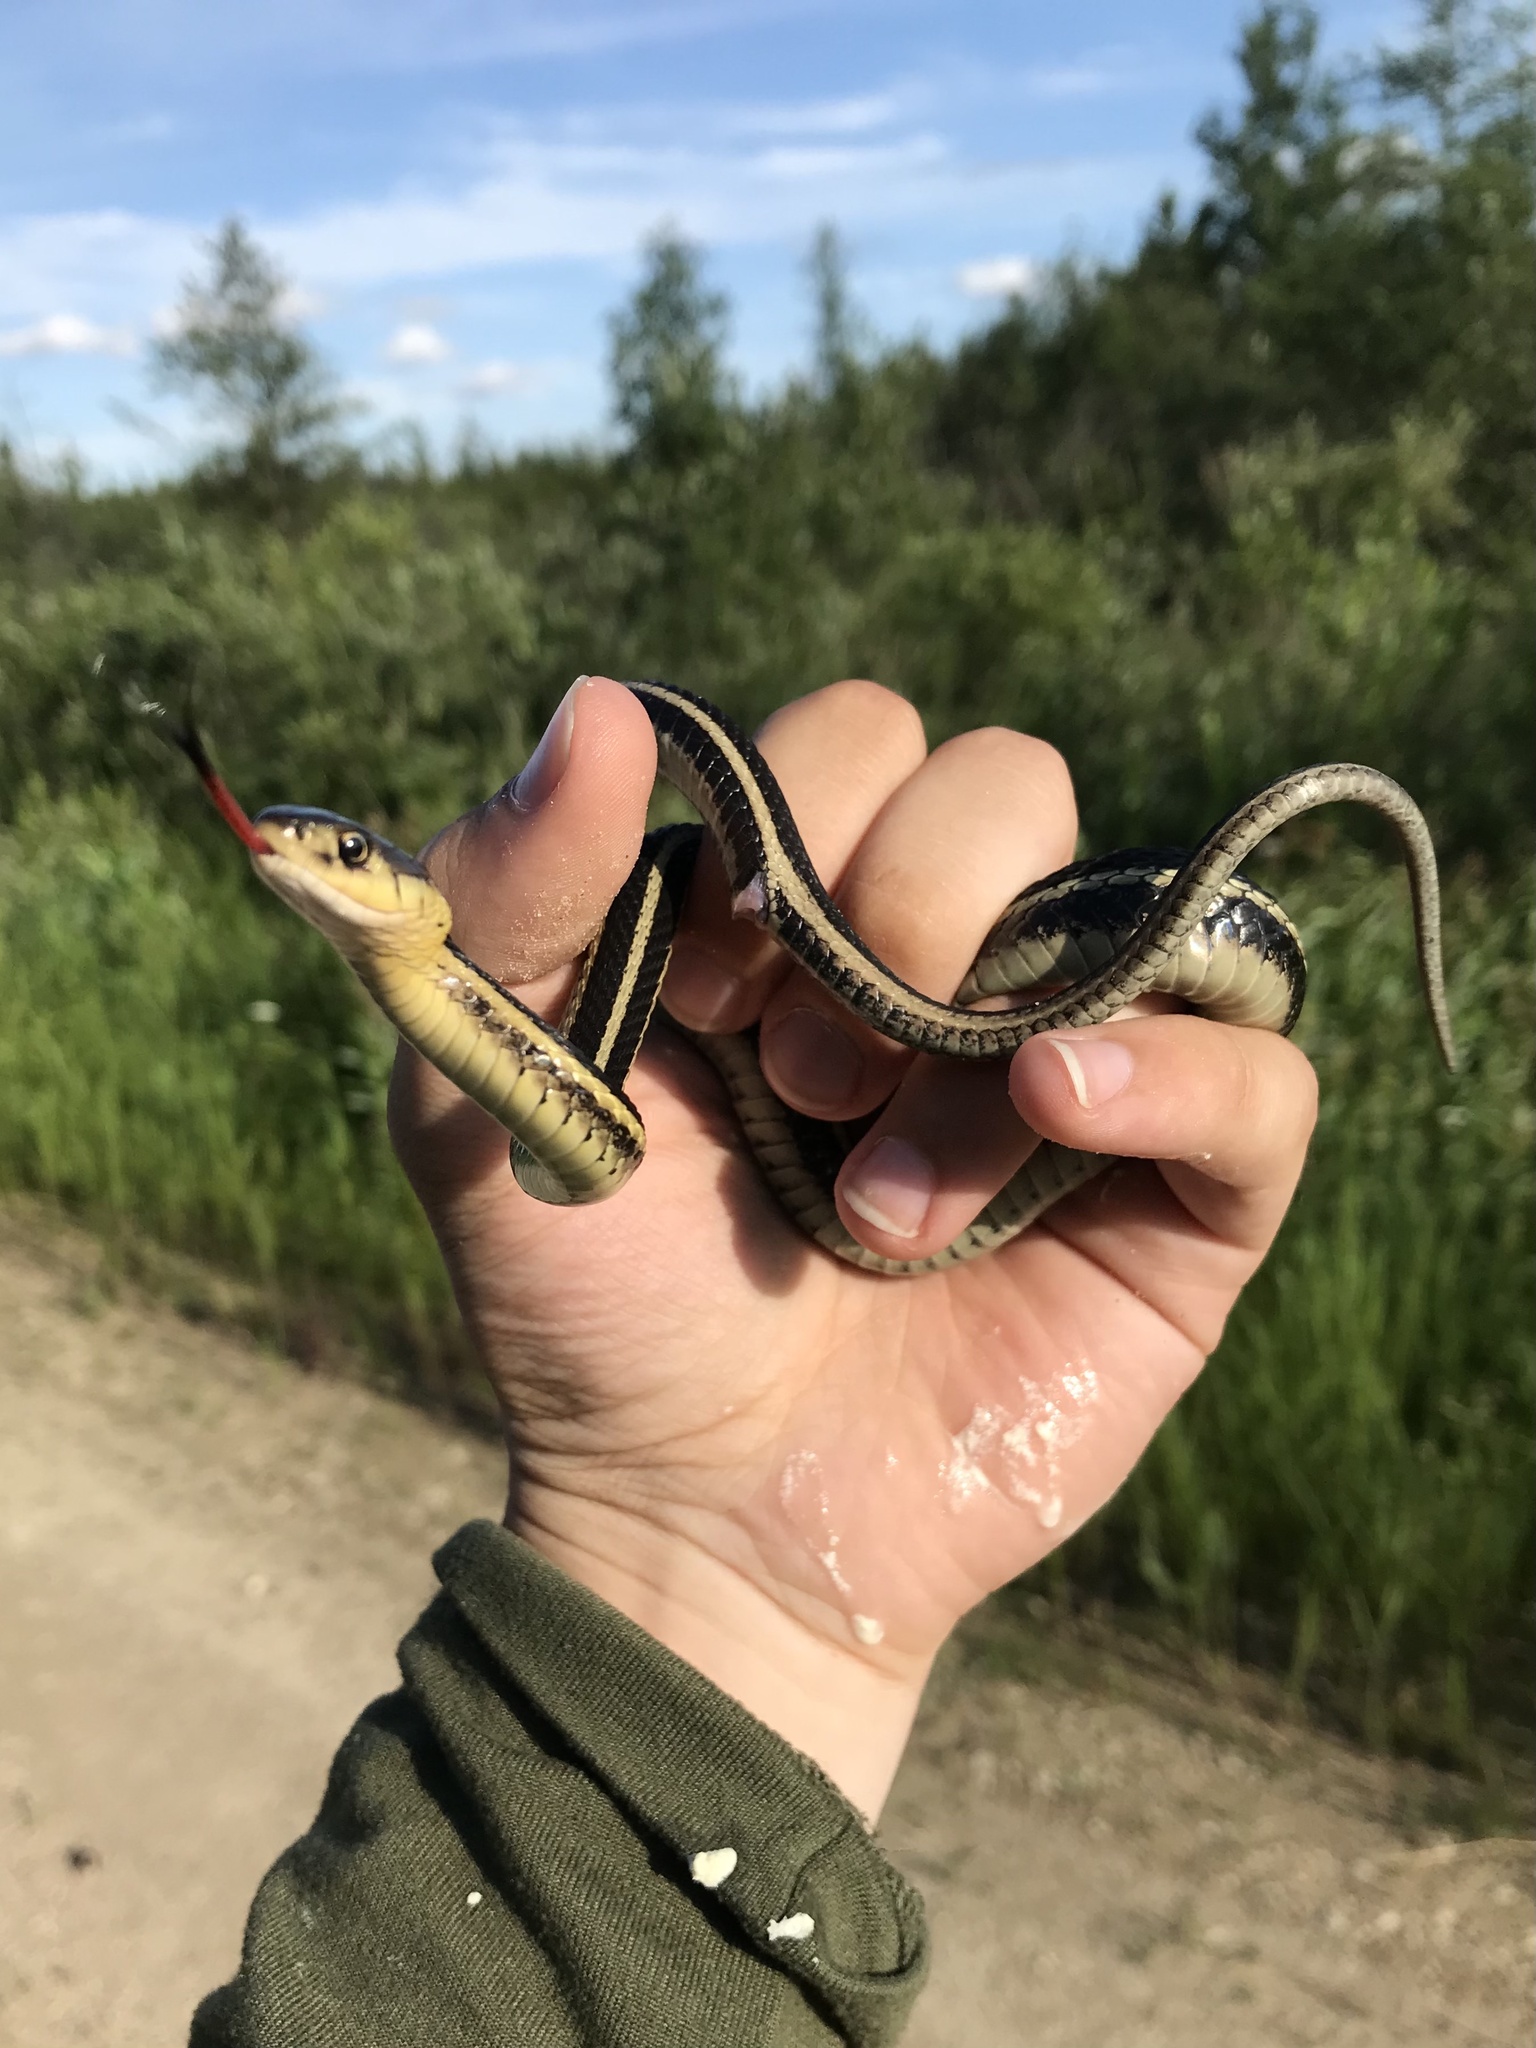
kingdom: Animalia
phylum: Chordata
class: Squamata
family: Colubridae
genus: Thamnophis
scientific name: Thamnophis sirtalis
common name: Common garter snake
